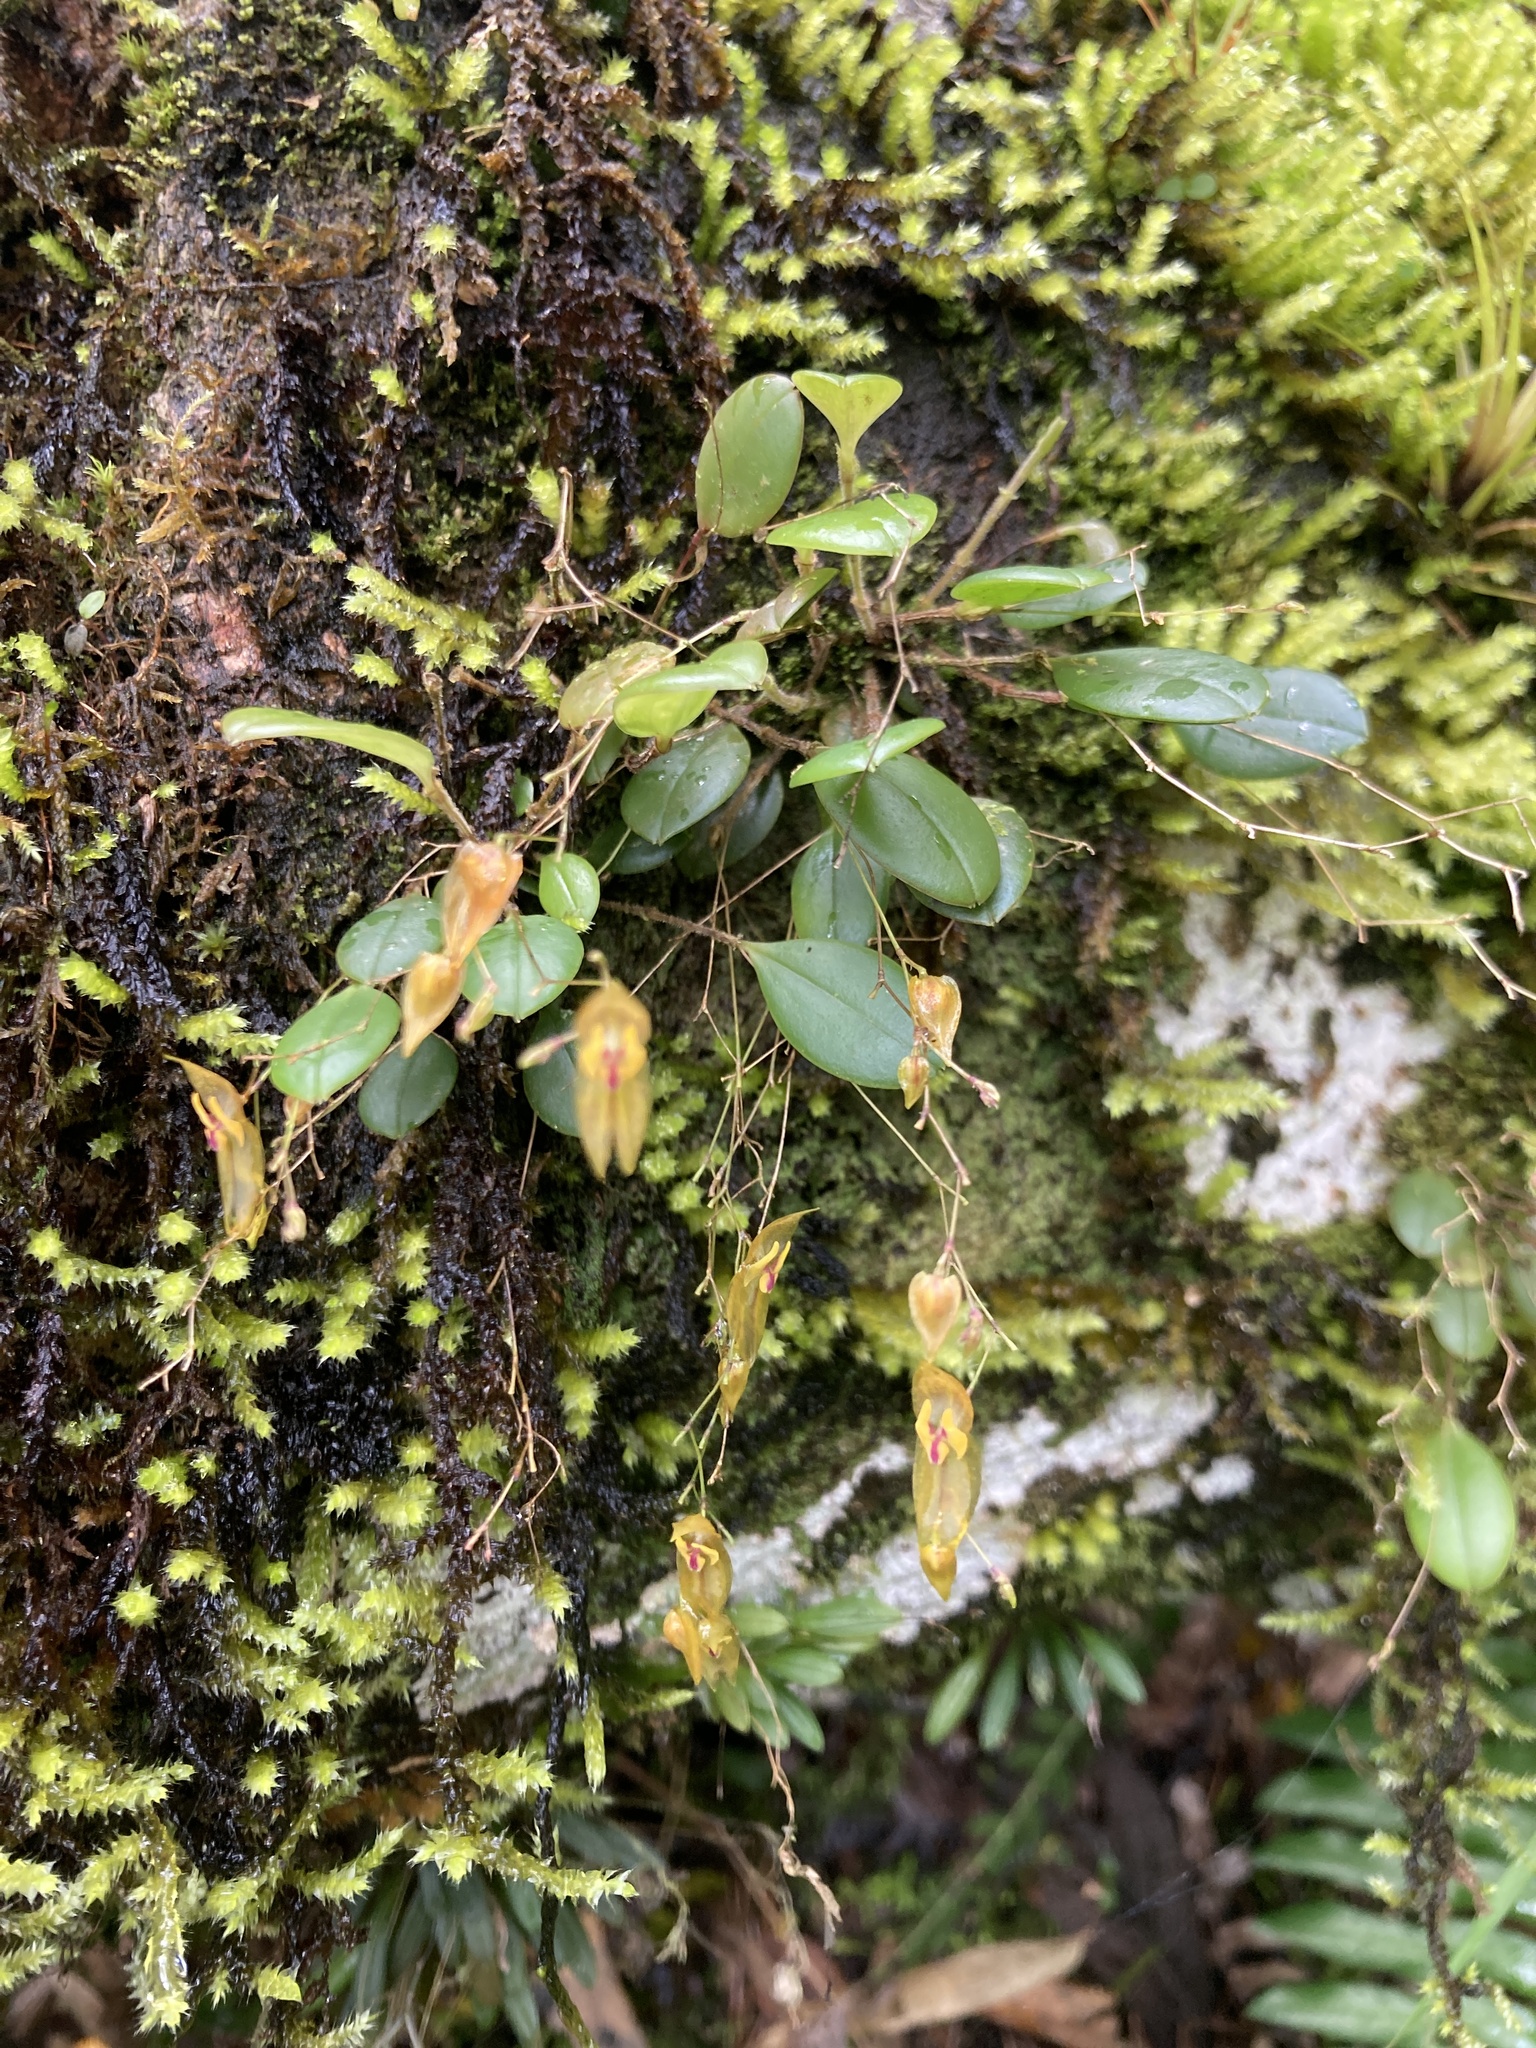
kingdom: Plantae
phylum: Tracheophyta
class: Liliopsida
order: Asparagales
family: Orchidaceae
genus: Lepanthes
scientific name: Lepanthes effusa
